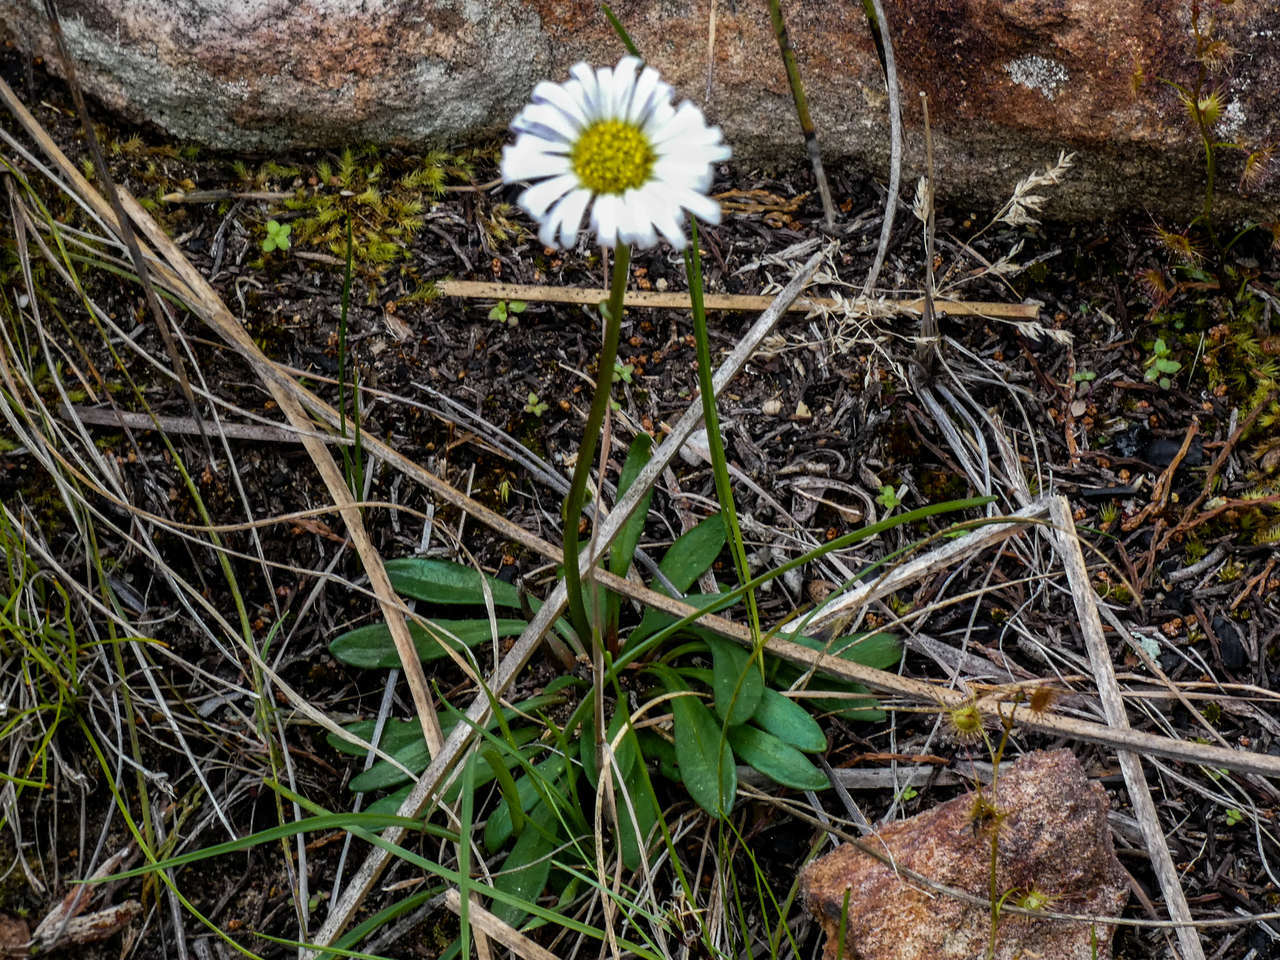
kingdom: Plantae
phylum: Tracheophyta
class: Magnoliopsida
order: Asterales
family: Asteraceae
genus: Brachyscome
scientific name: Brachyscome graminea
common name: Grass daisy
